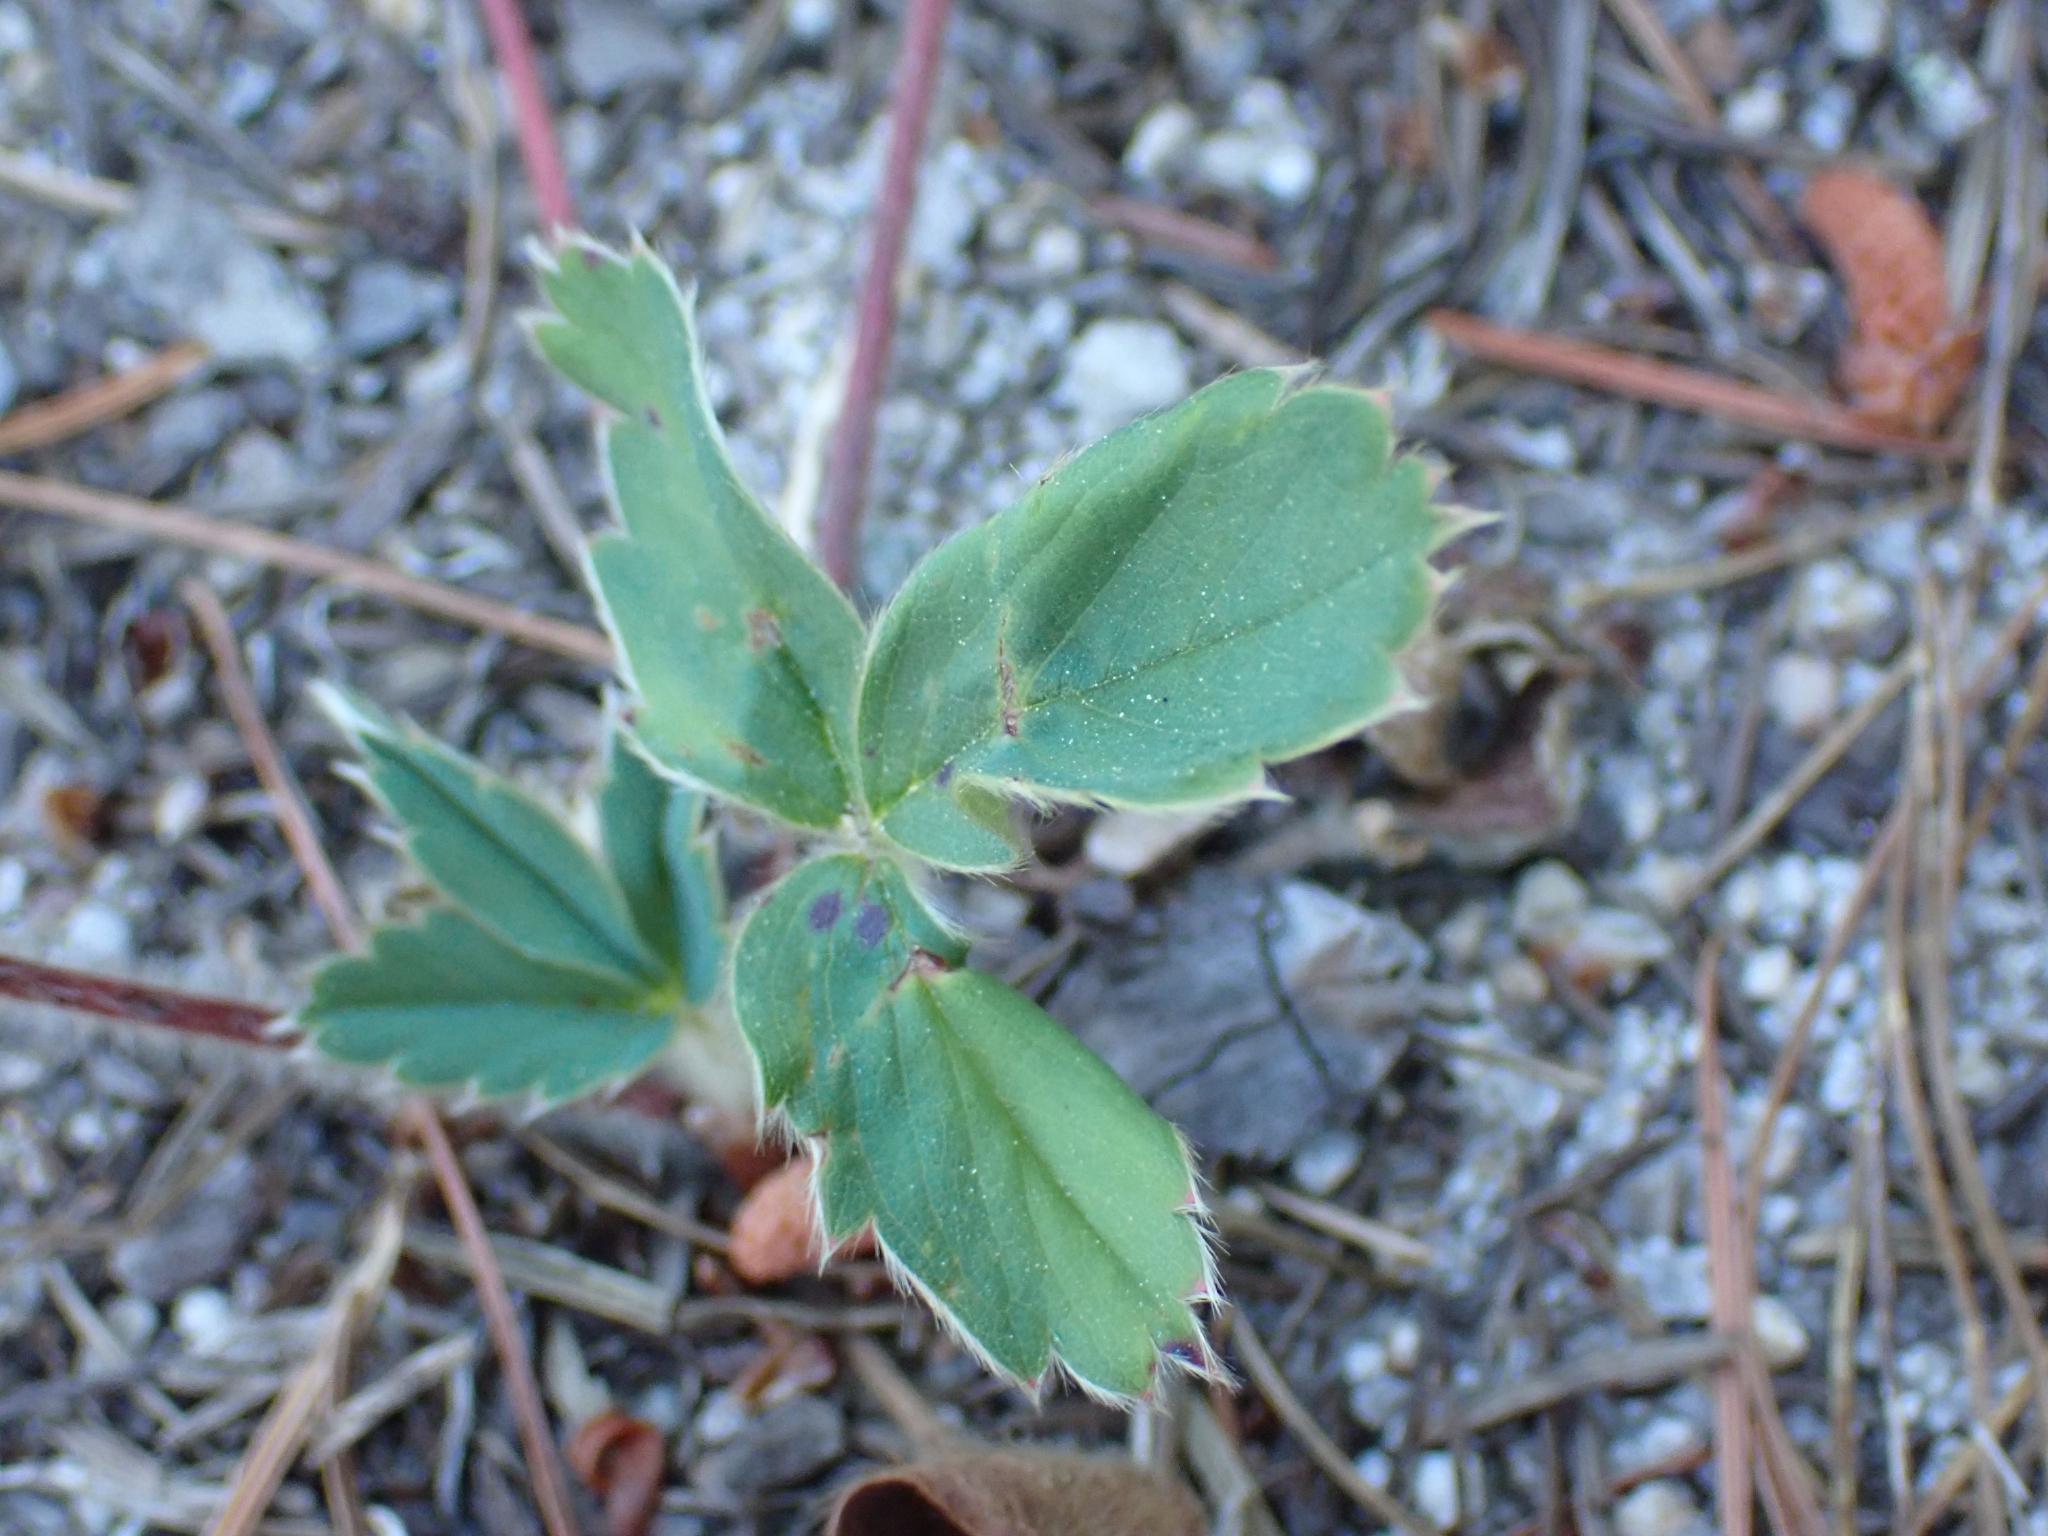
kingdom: Plantae
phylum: Tracheophyta
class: Magnoliopsida
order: Rosales
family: Rosaceae
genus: Fragaria
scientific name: Fragaria virginiana
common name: Thickleaved wild strawberry
